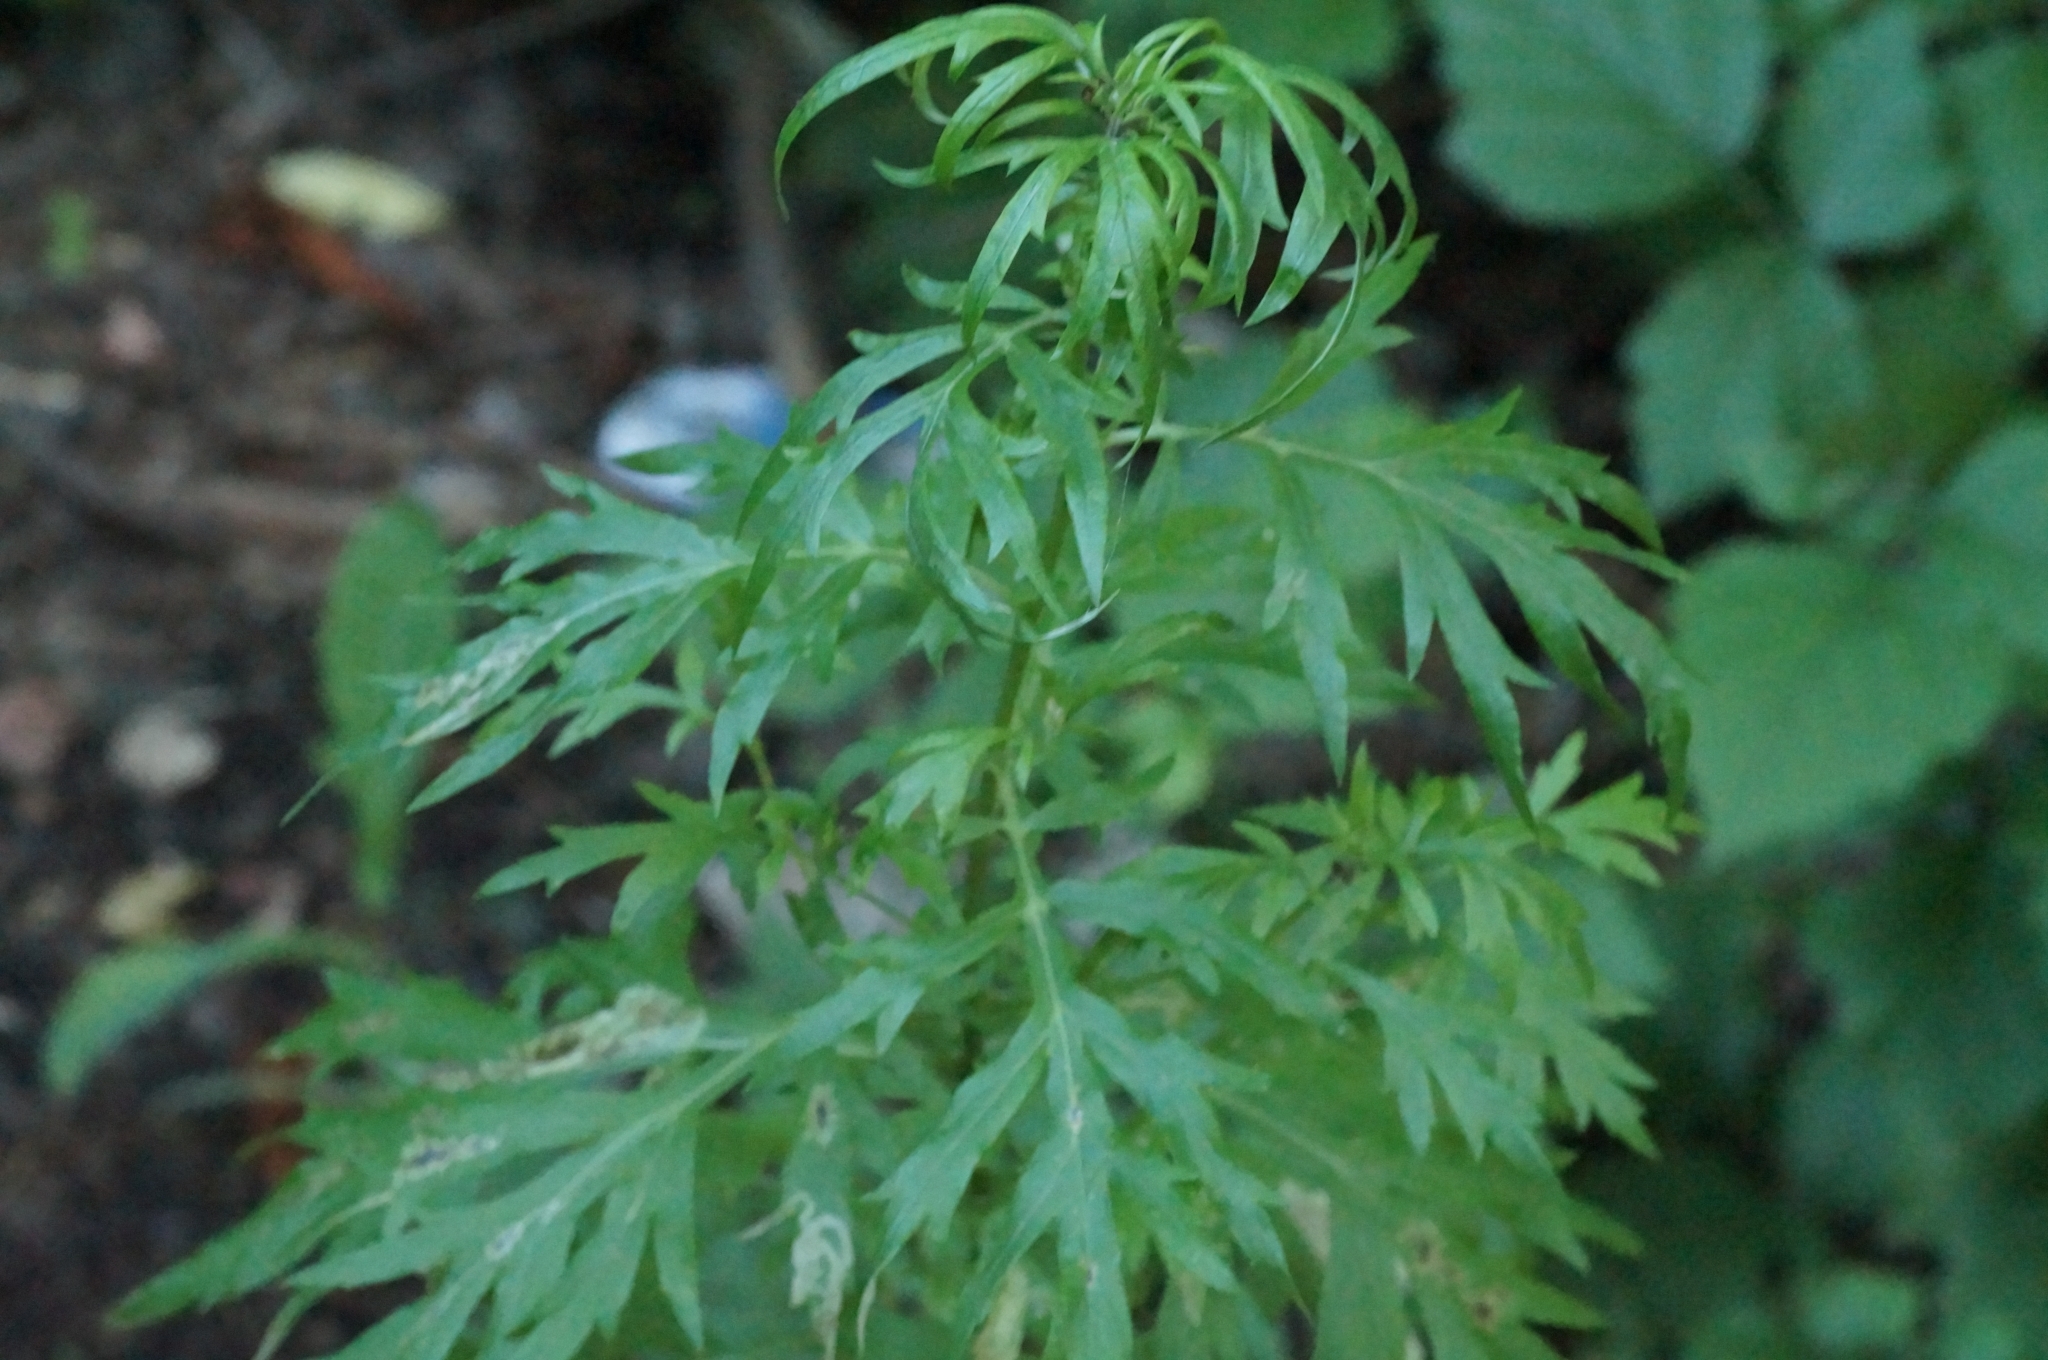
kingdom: Plantae
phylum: Tracheophyta
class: Magnoliopsida
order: Asterales
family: Asteraceae
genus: Artemisia
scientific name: Artemisia vulgaris
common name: Mugwort
